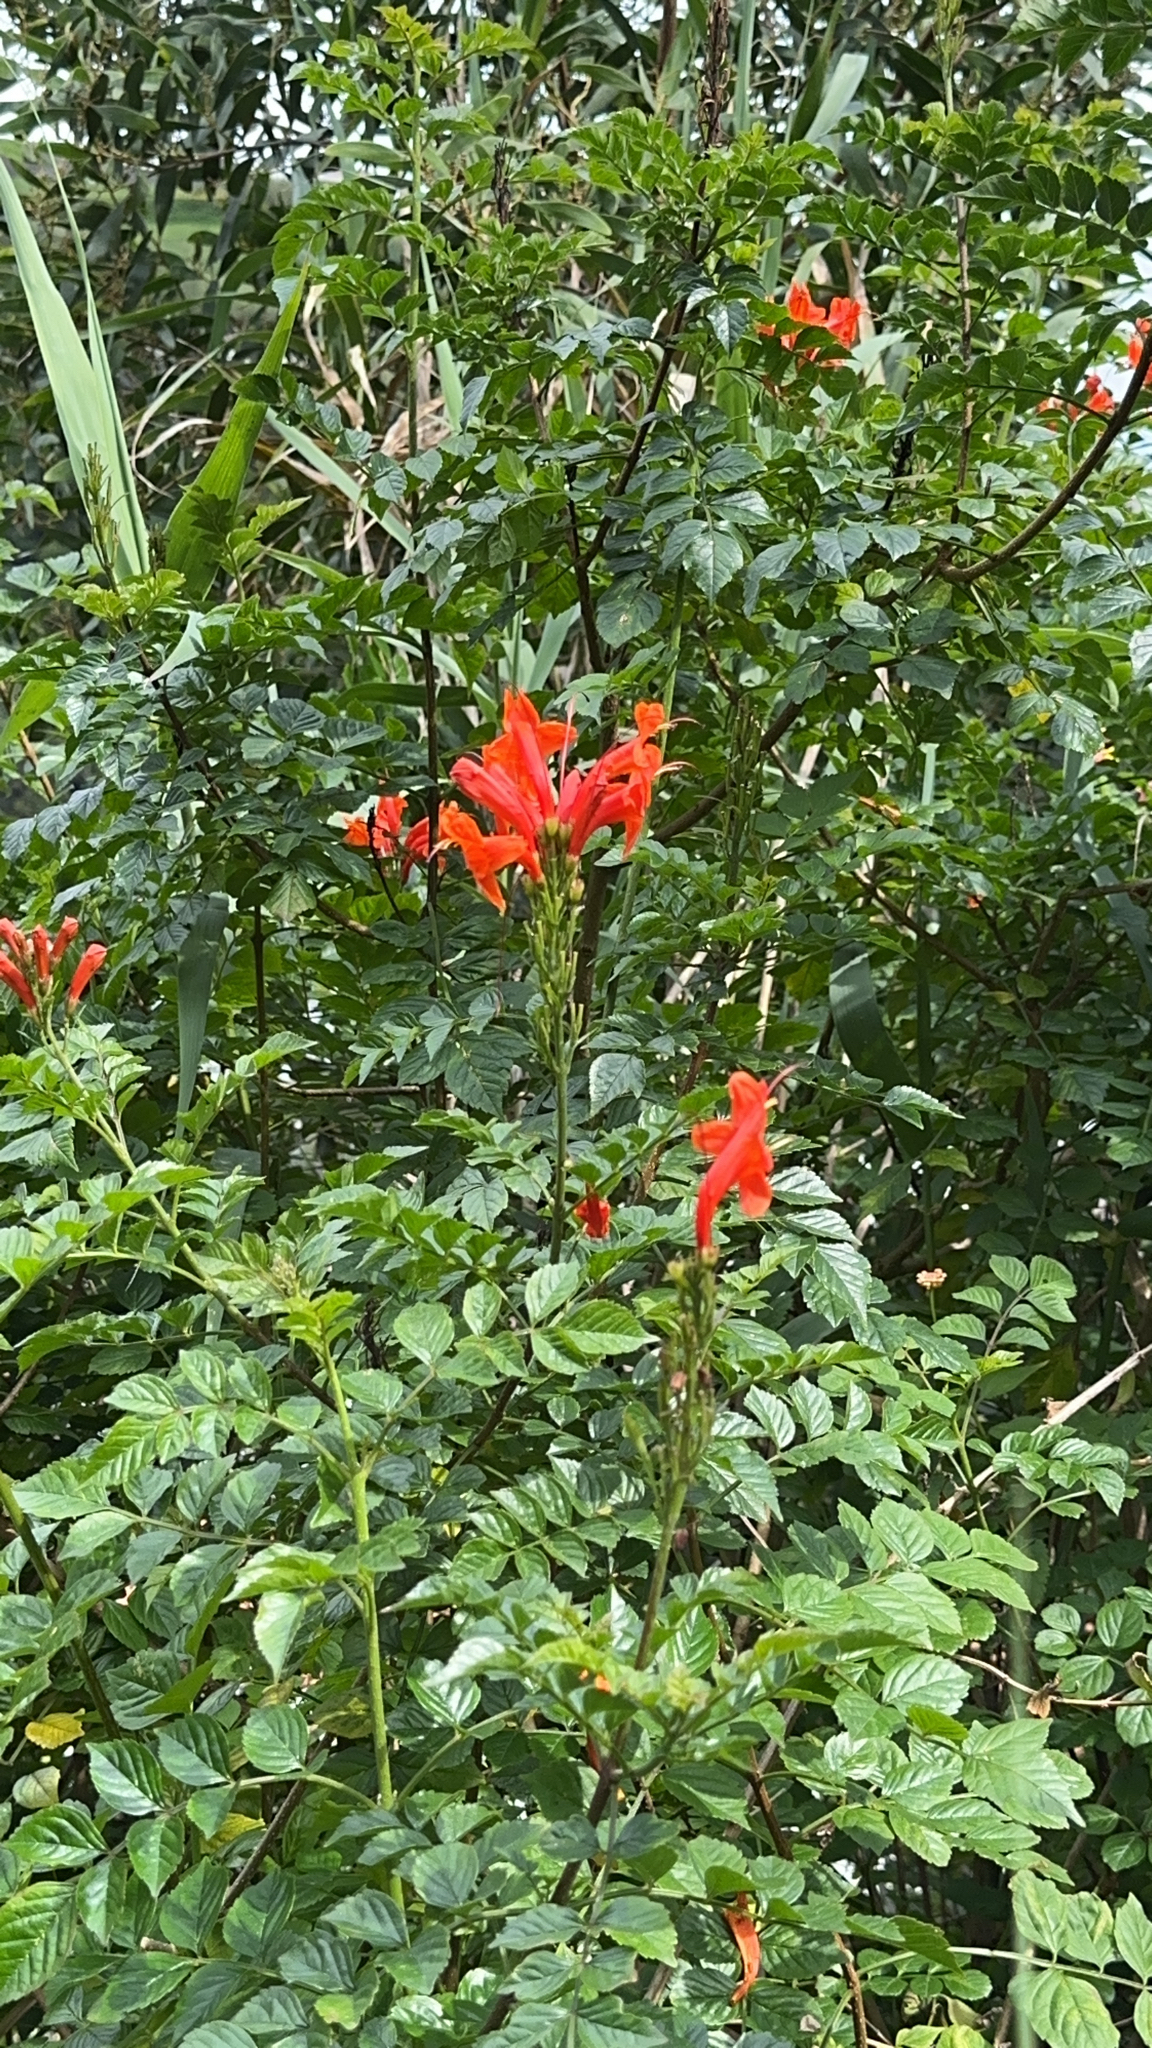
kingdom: Plantae
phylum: Tracheophyta
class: Magnoliopsida
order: Lamiales
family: Bignoniaceae
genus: Tecomaria
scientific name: Tecomaria capensis
